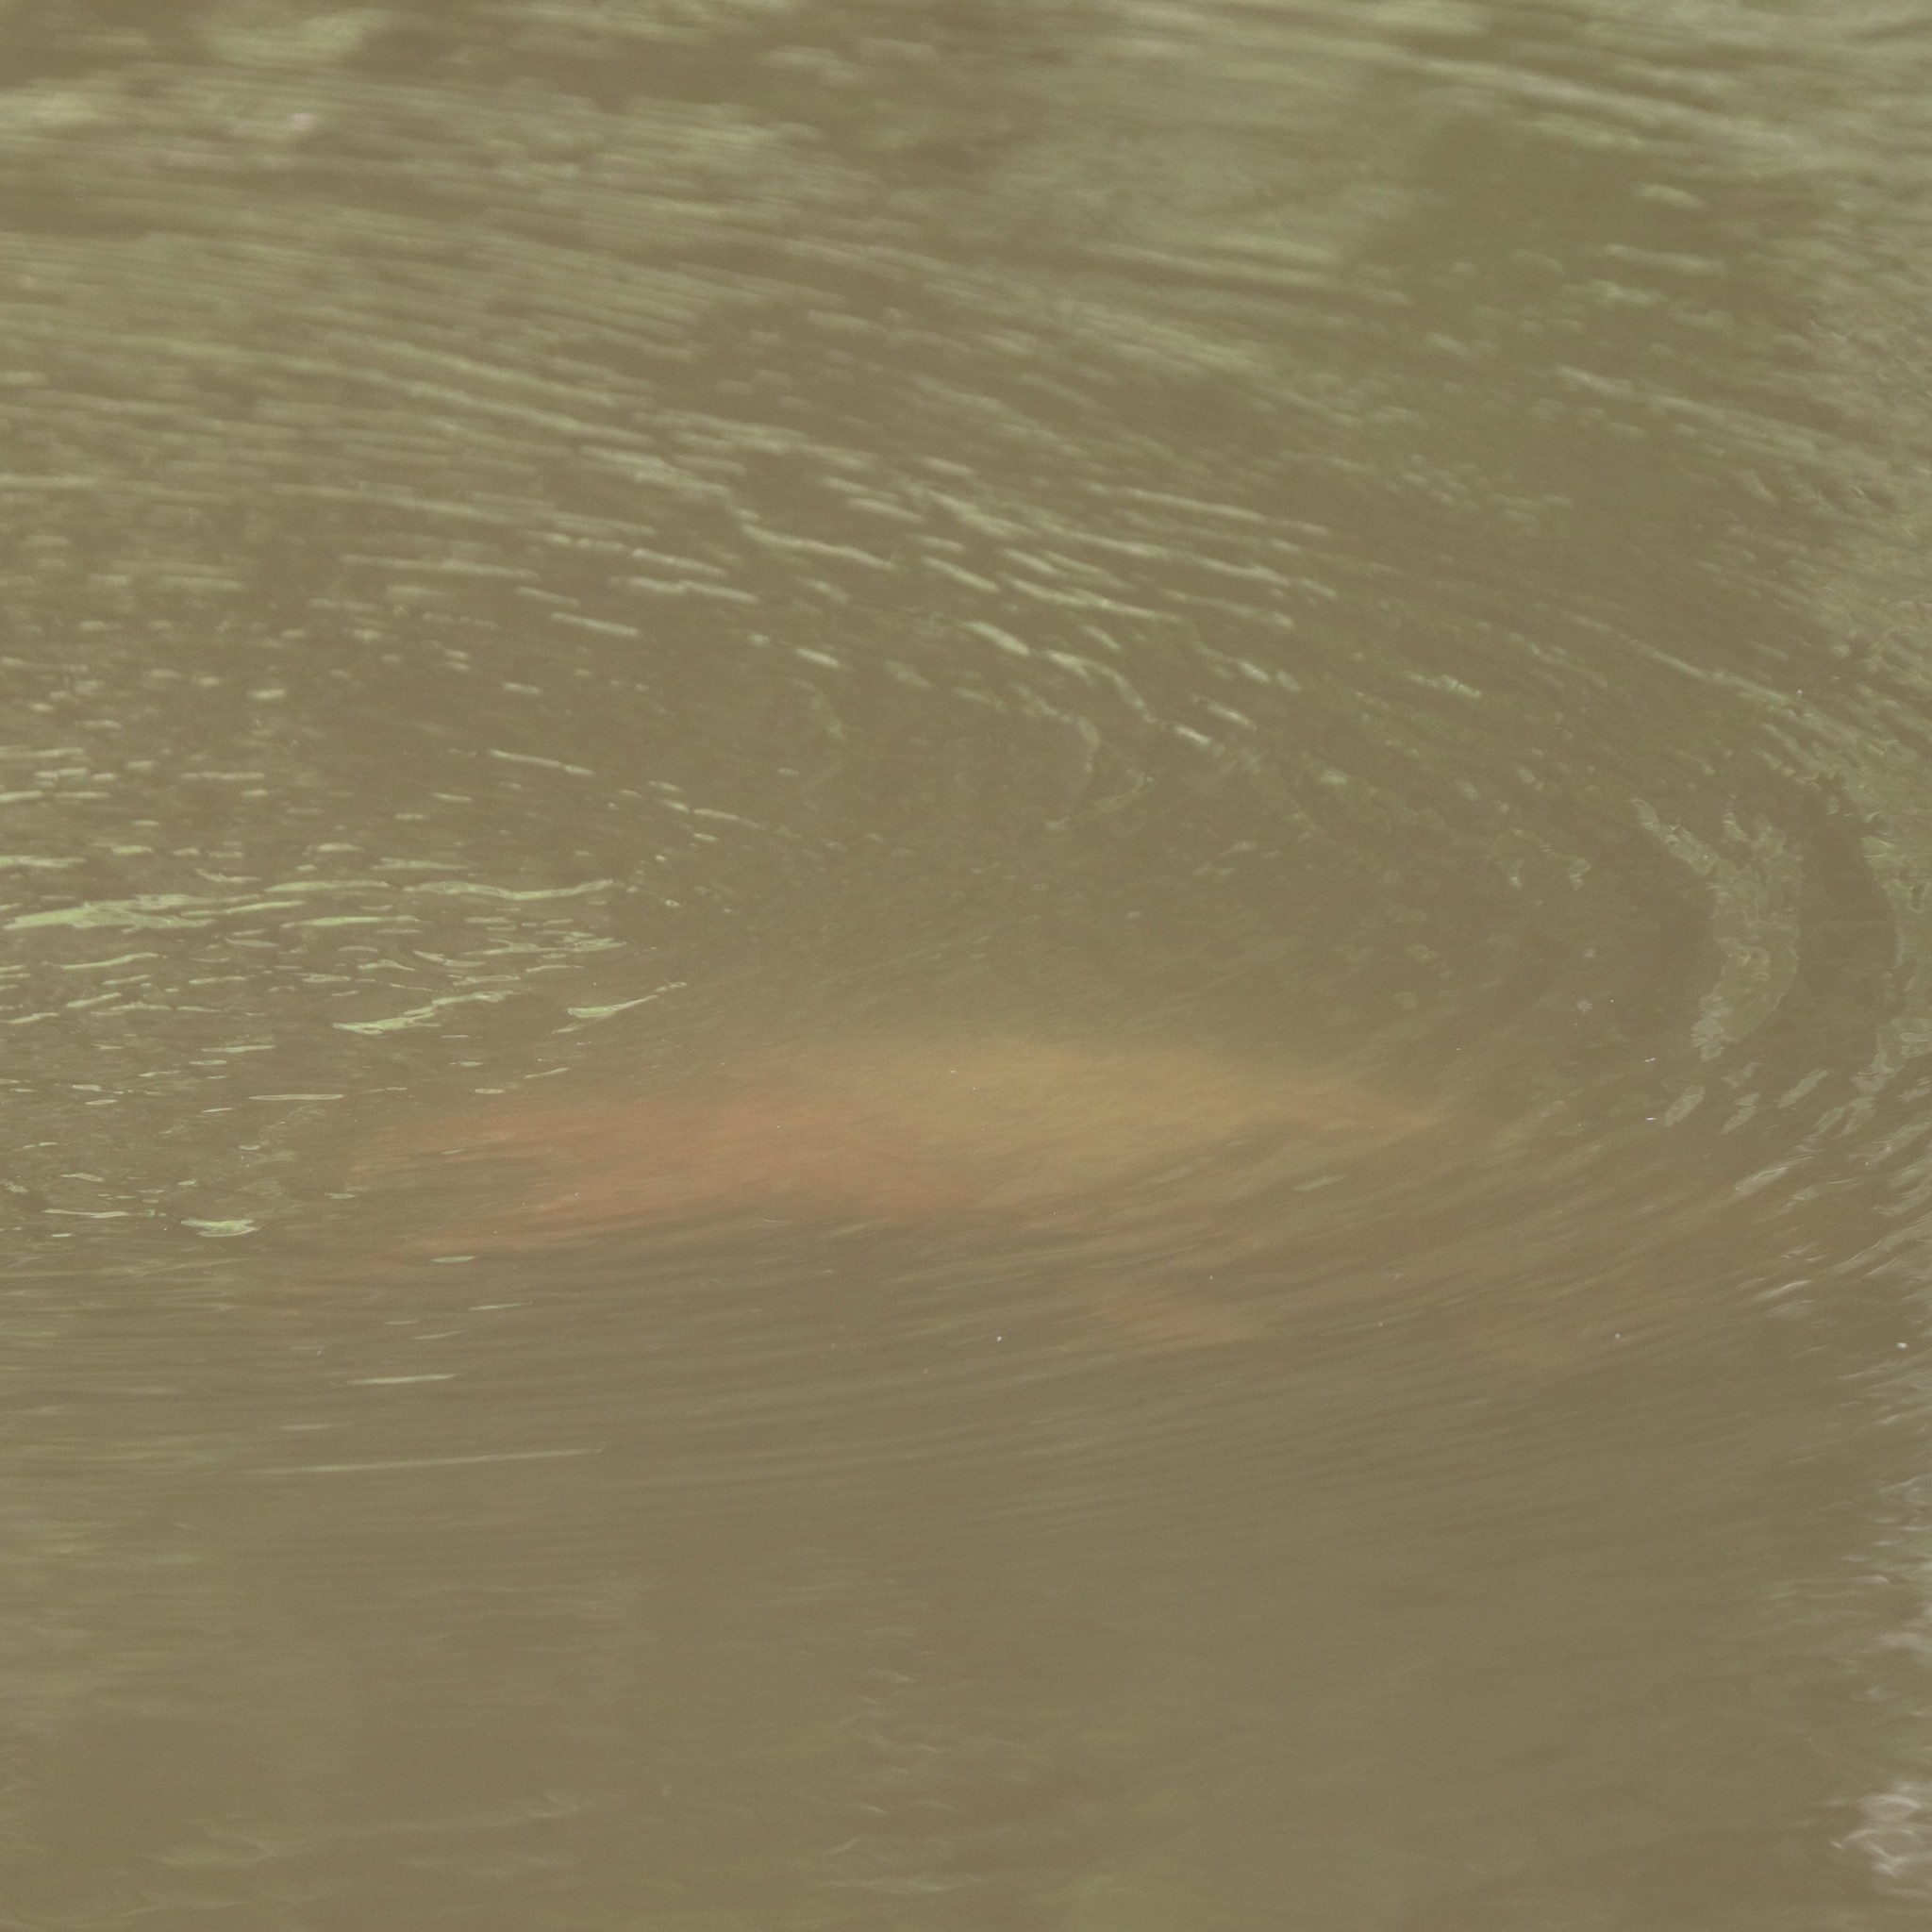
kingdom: Animalia
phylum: Chordata
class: Testudines
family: Chelydridae
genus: Chelydra
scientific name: Chelydra serpentina
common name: Common snapping turtle
